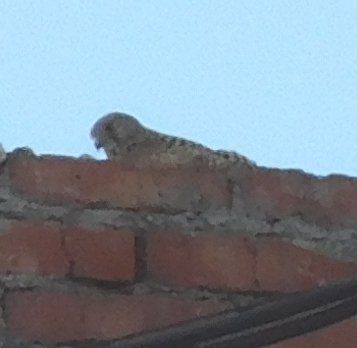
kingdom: Animalia
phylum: Chordata
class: Aves
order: Falconiformes
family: Falconidae
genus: Falco
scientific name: Falco tinnunculus
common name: Common kestrel
